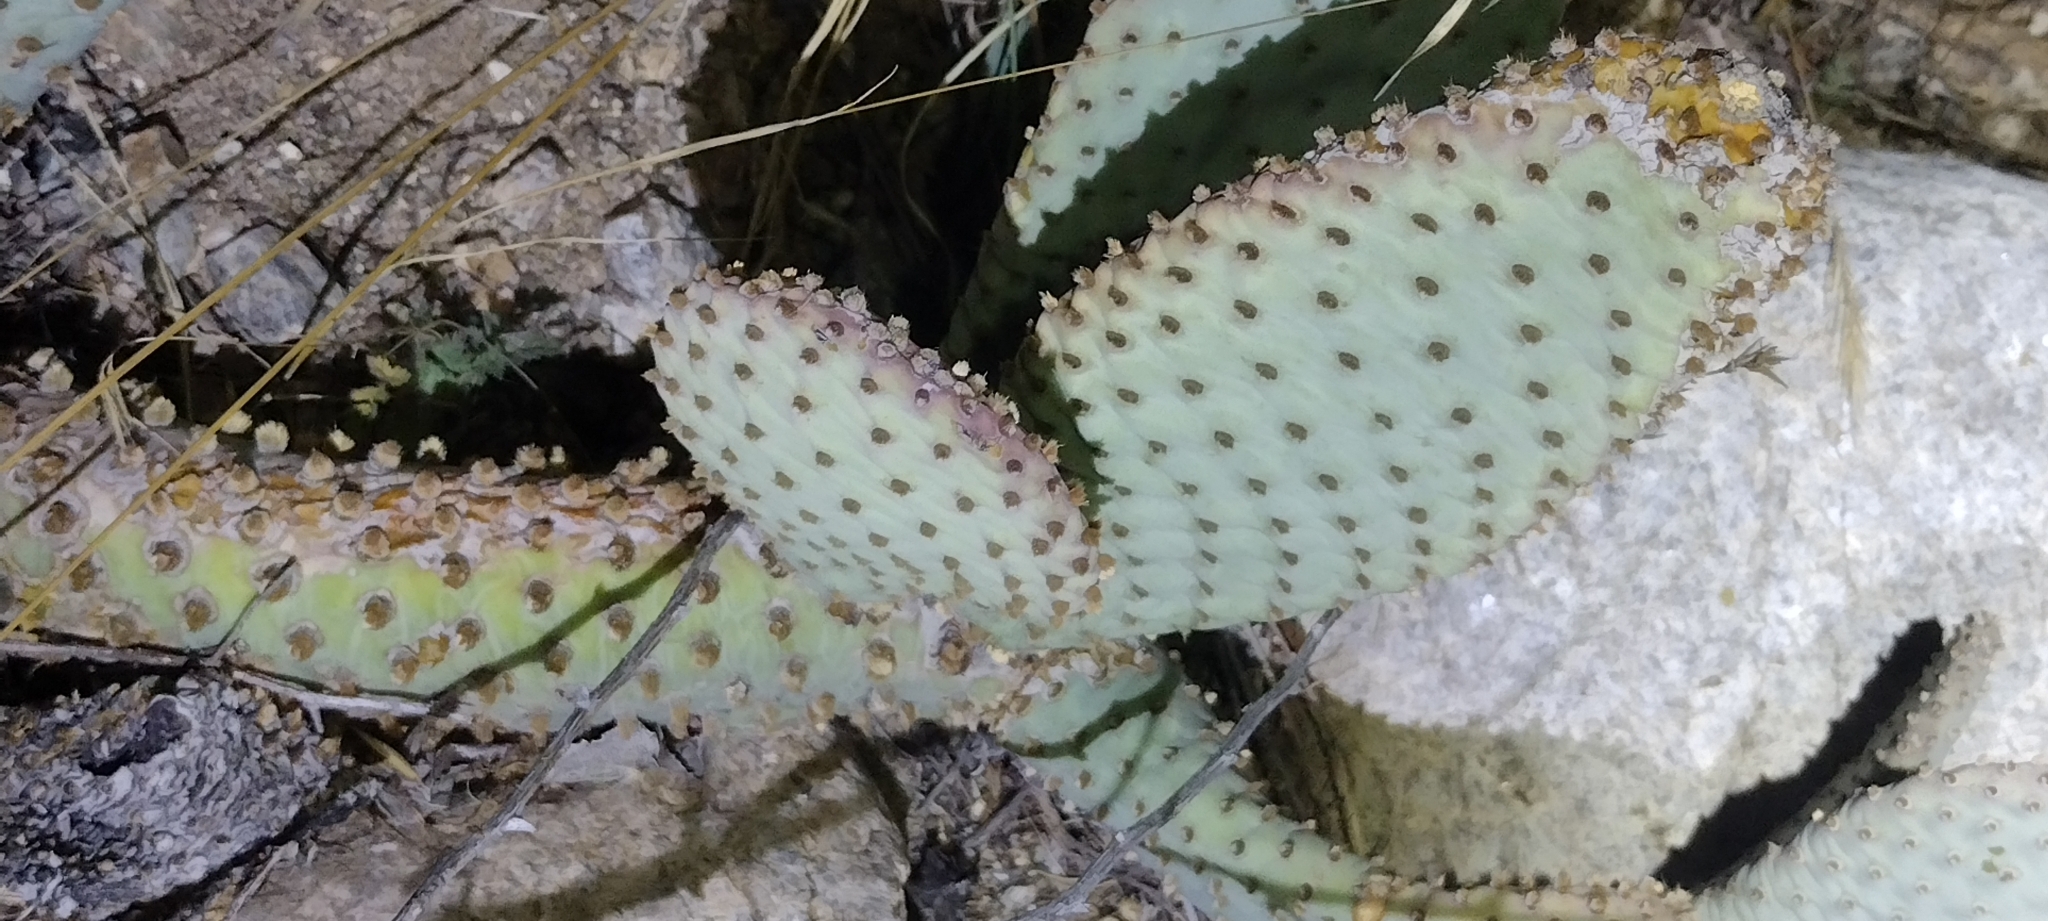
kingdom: Plantae
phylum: Tracheophyta
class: Magnoliopsida
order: Caryophyllales
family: Cactaceae
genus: Opuntia
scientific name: Opuntia basilaris
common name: Beavertail prickly-pear
